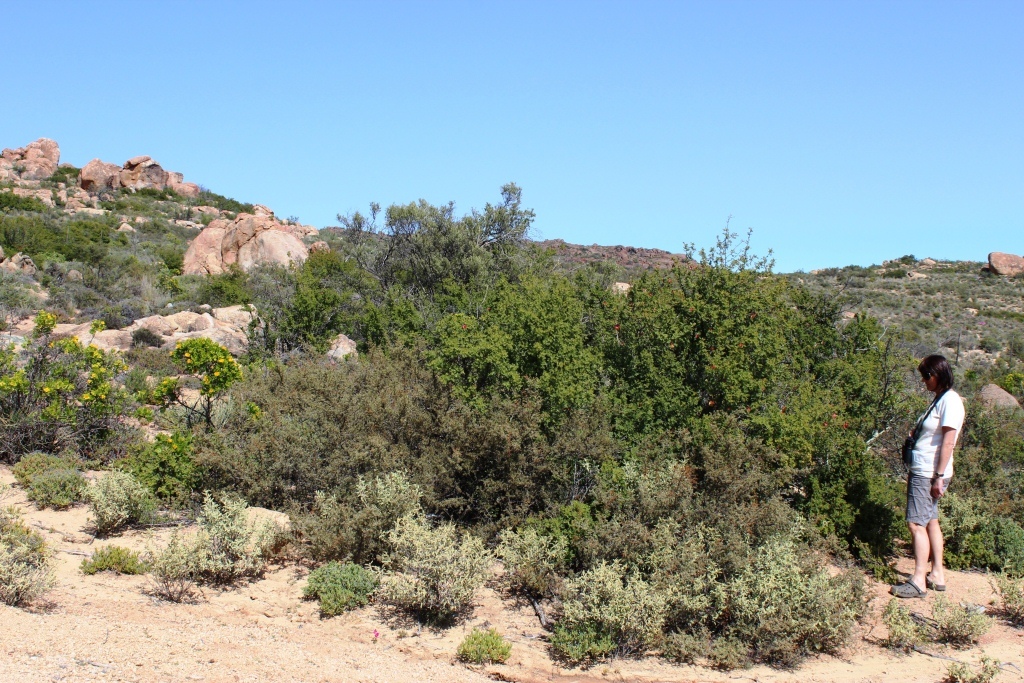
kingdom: Plantae
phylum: Tracheophyta
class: Magnoliopsida
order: Sapindales
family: Sapindaceae
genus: Erythrophysa
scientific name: Erythrophysa alata
